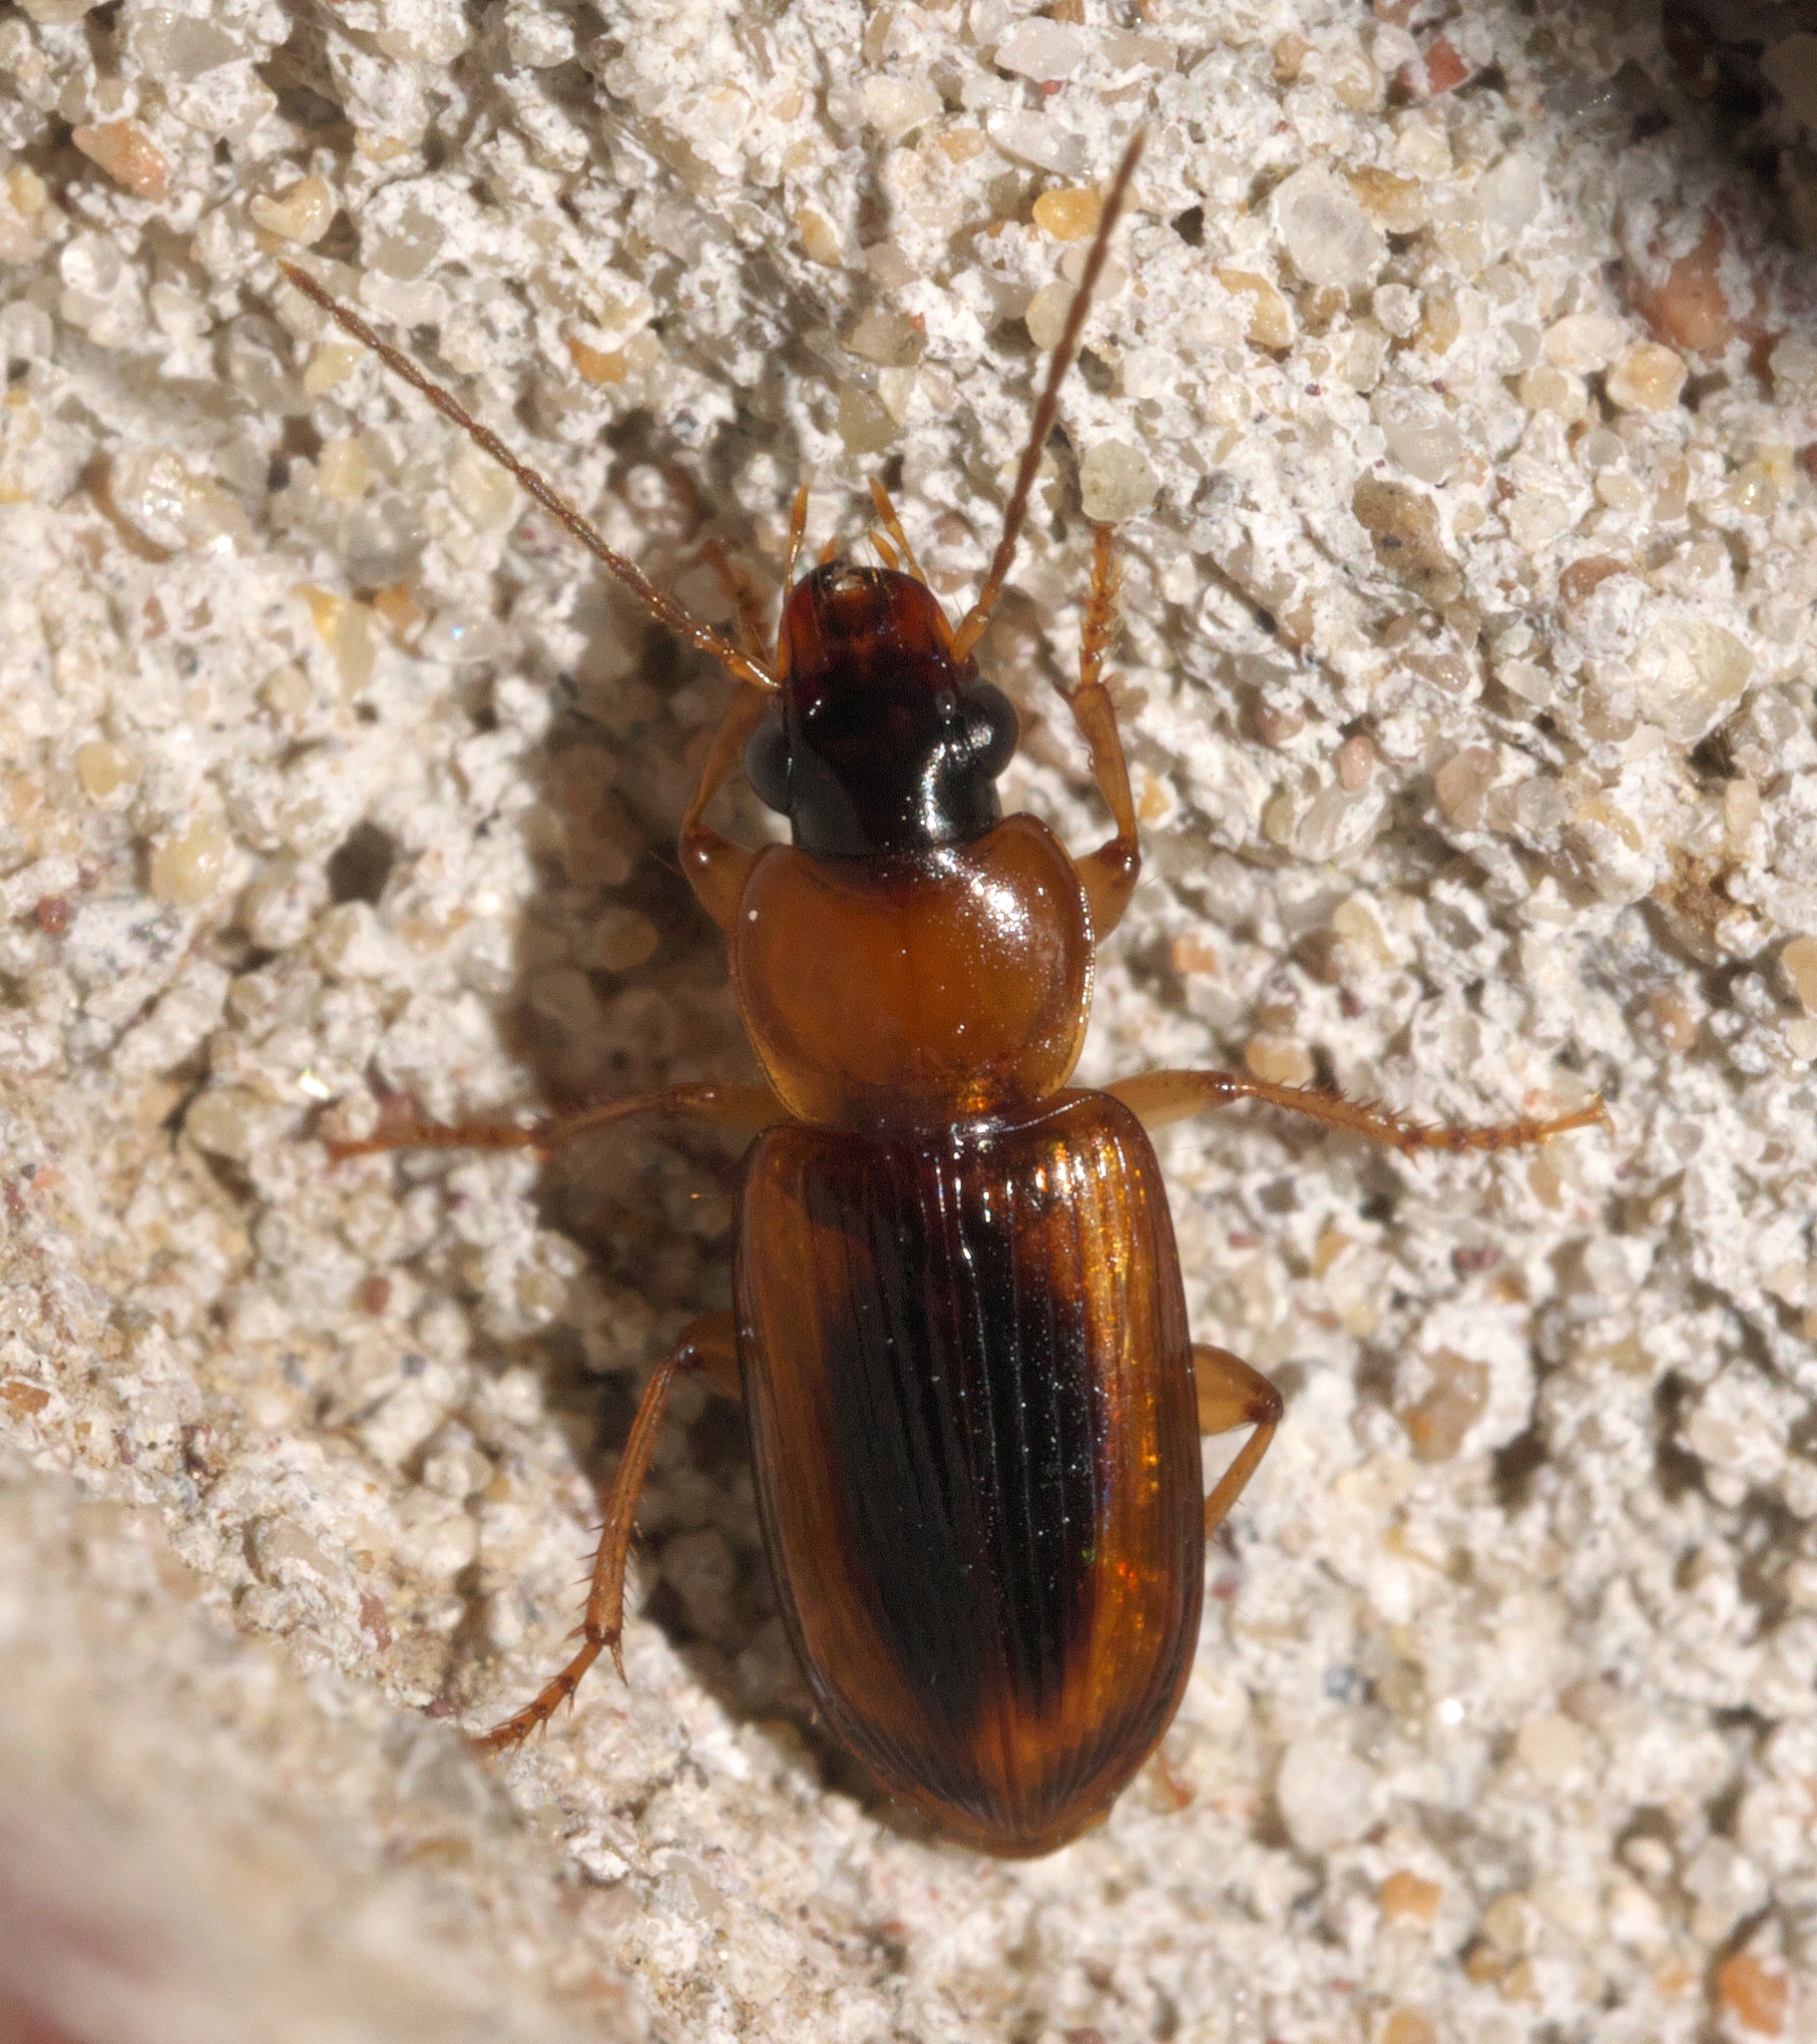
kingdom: Animalia
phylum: Arthropoda
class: Insecta
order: Coleoptera
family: Carabidae
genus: Stenolophus
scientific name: Stenolophus dissimilis
